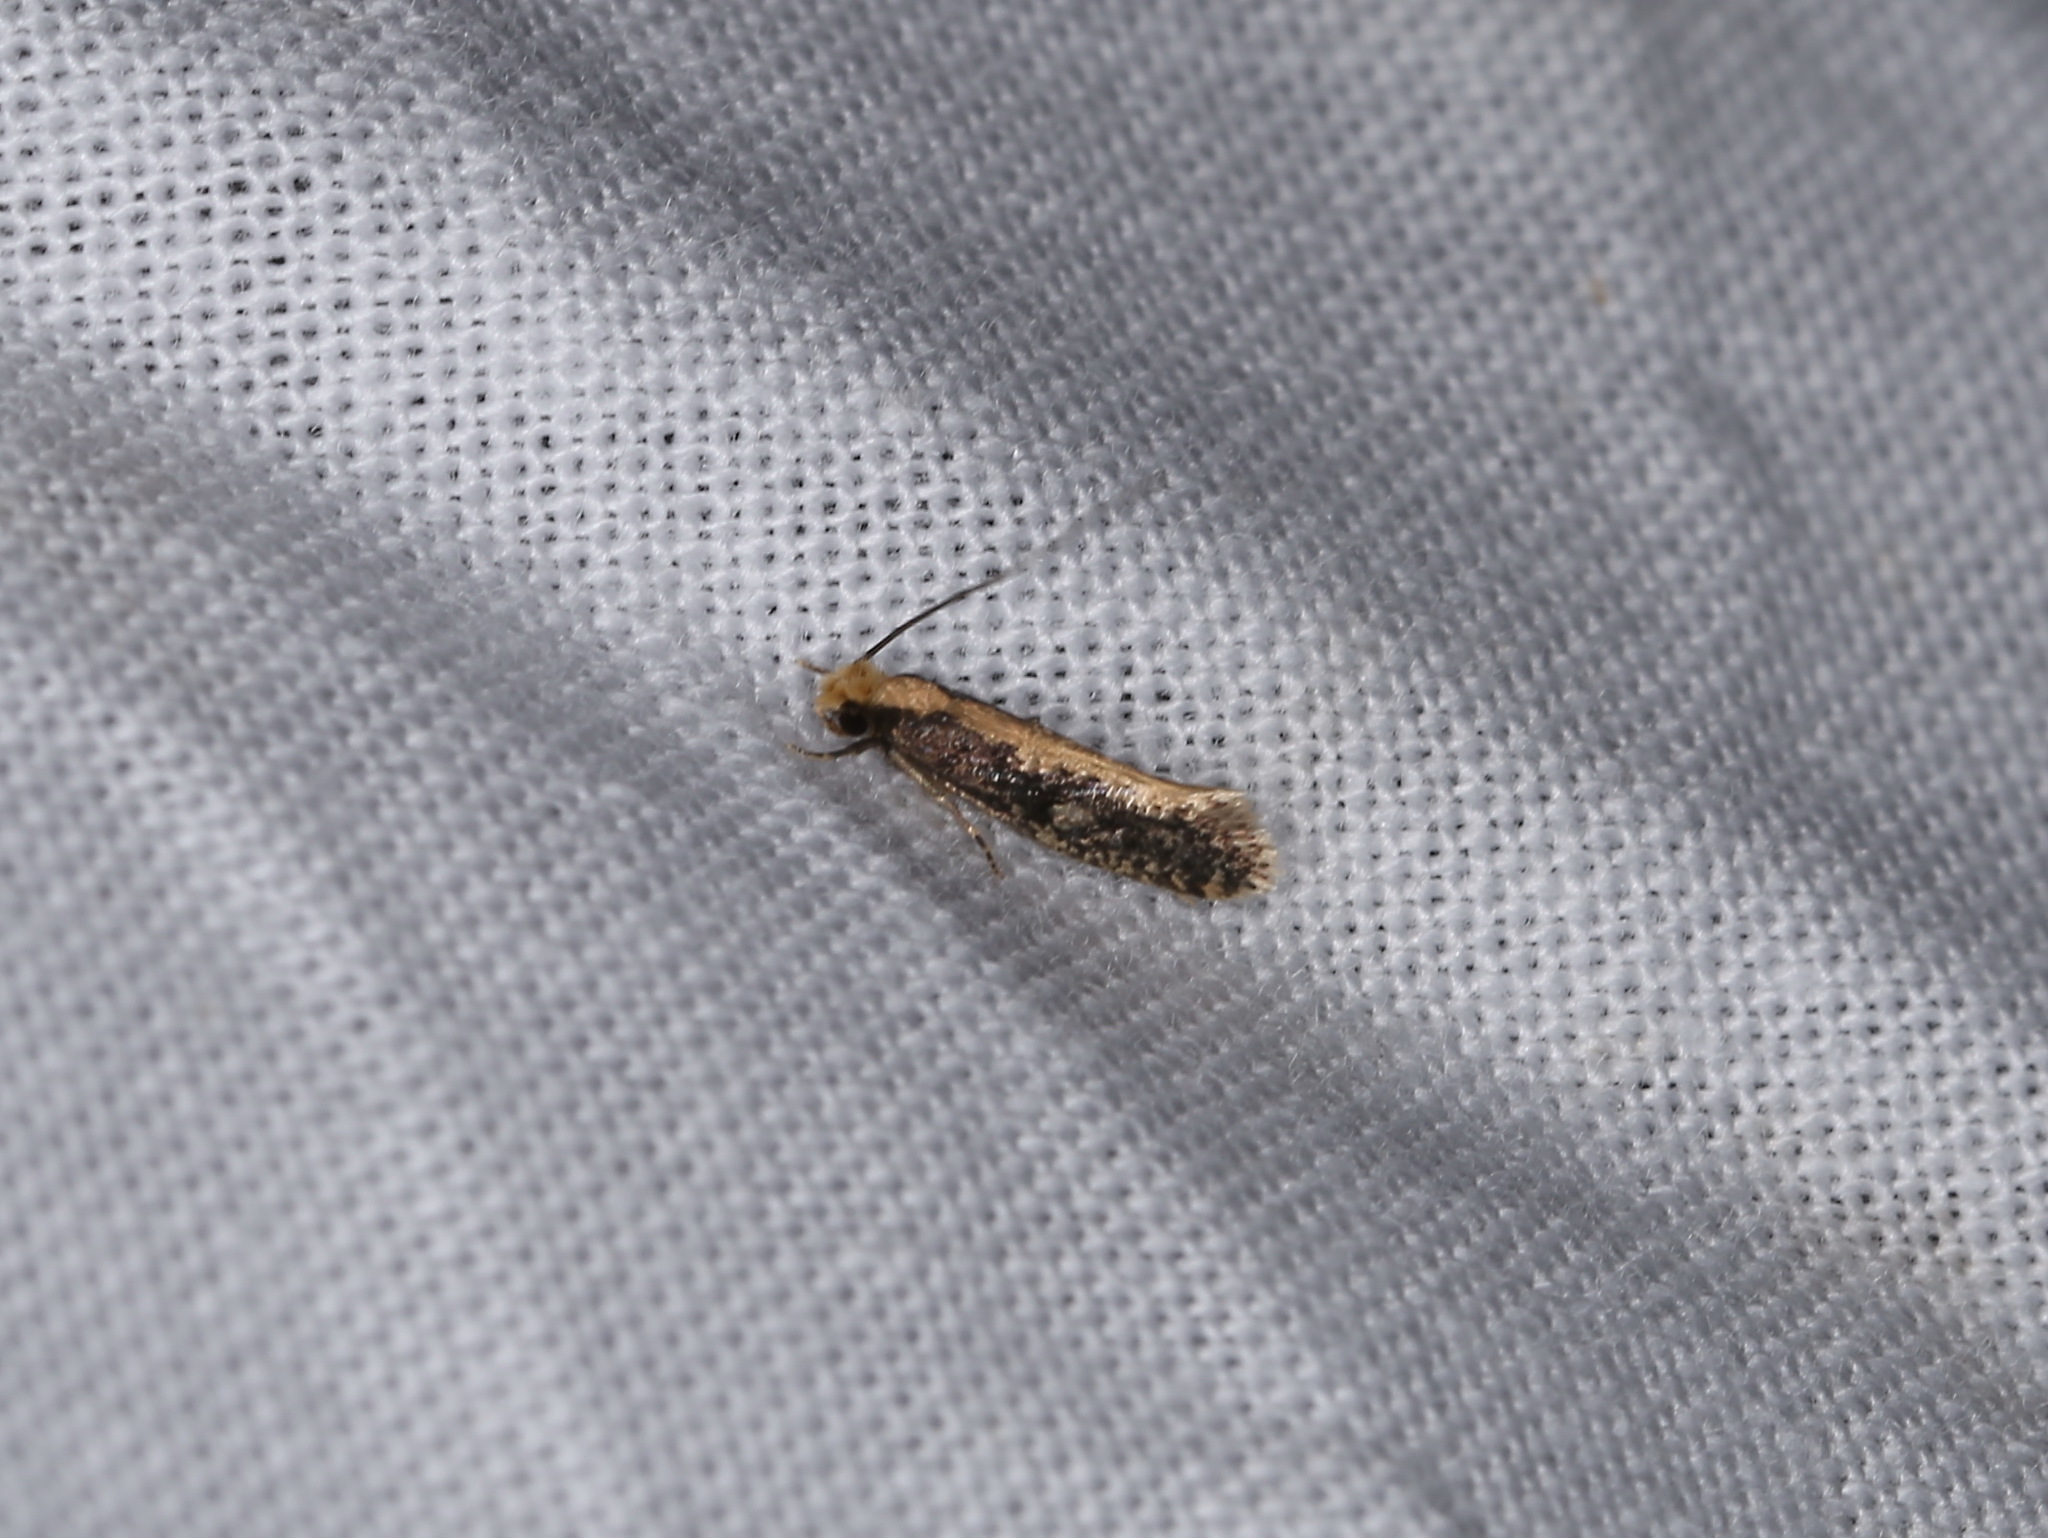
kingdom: Animalia
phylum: Arthropoda
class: Insecta
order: Lepidoptera
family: Tineidae
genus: Monopis
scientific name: Monopis crocicapitella
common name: Moth
